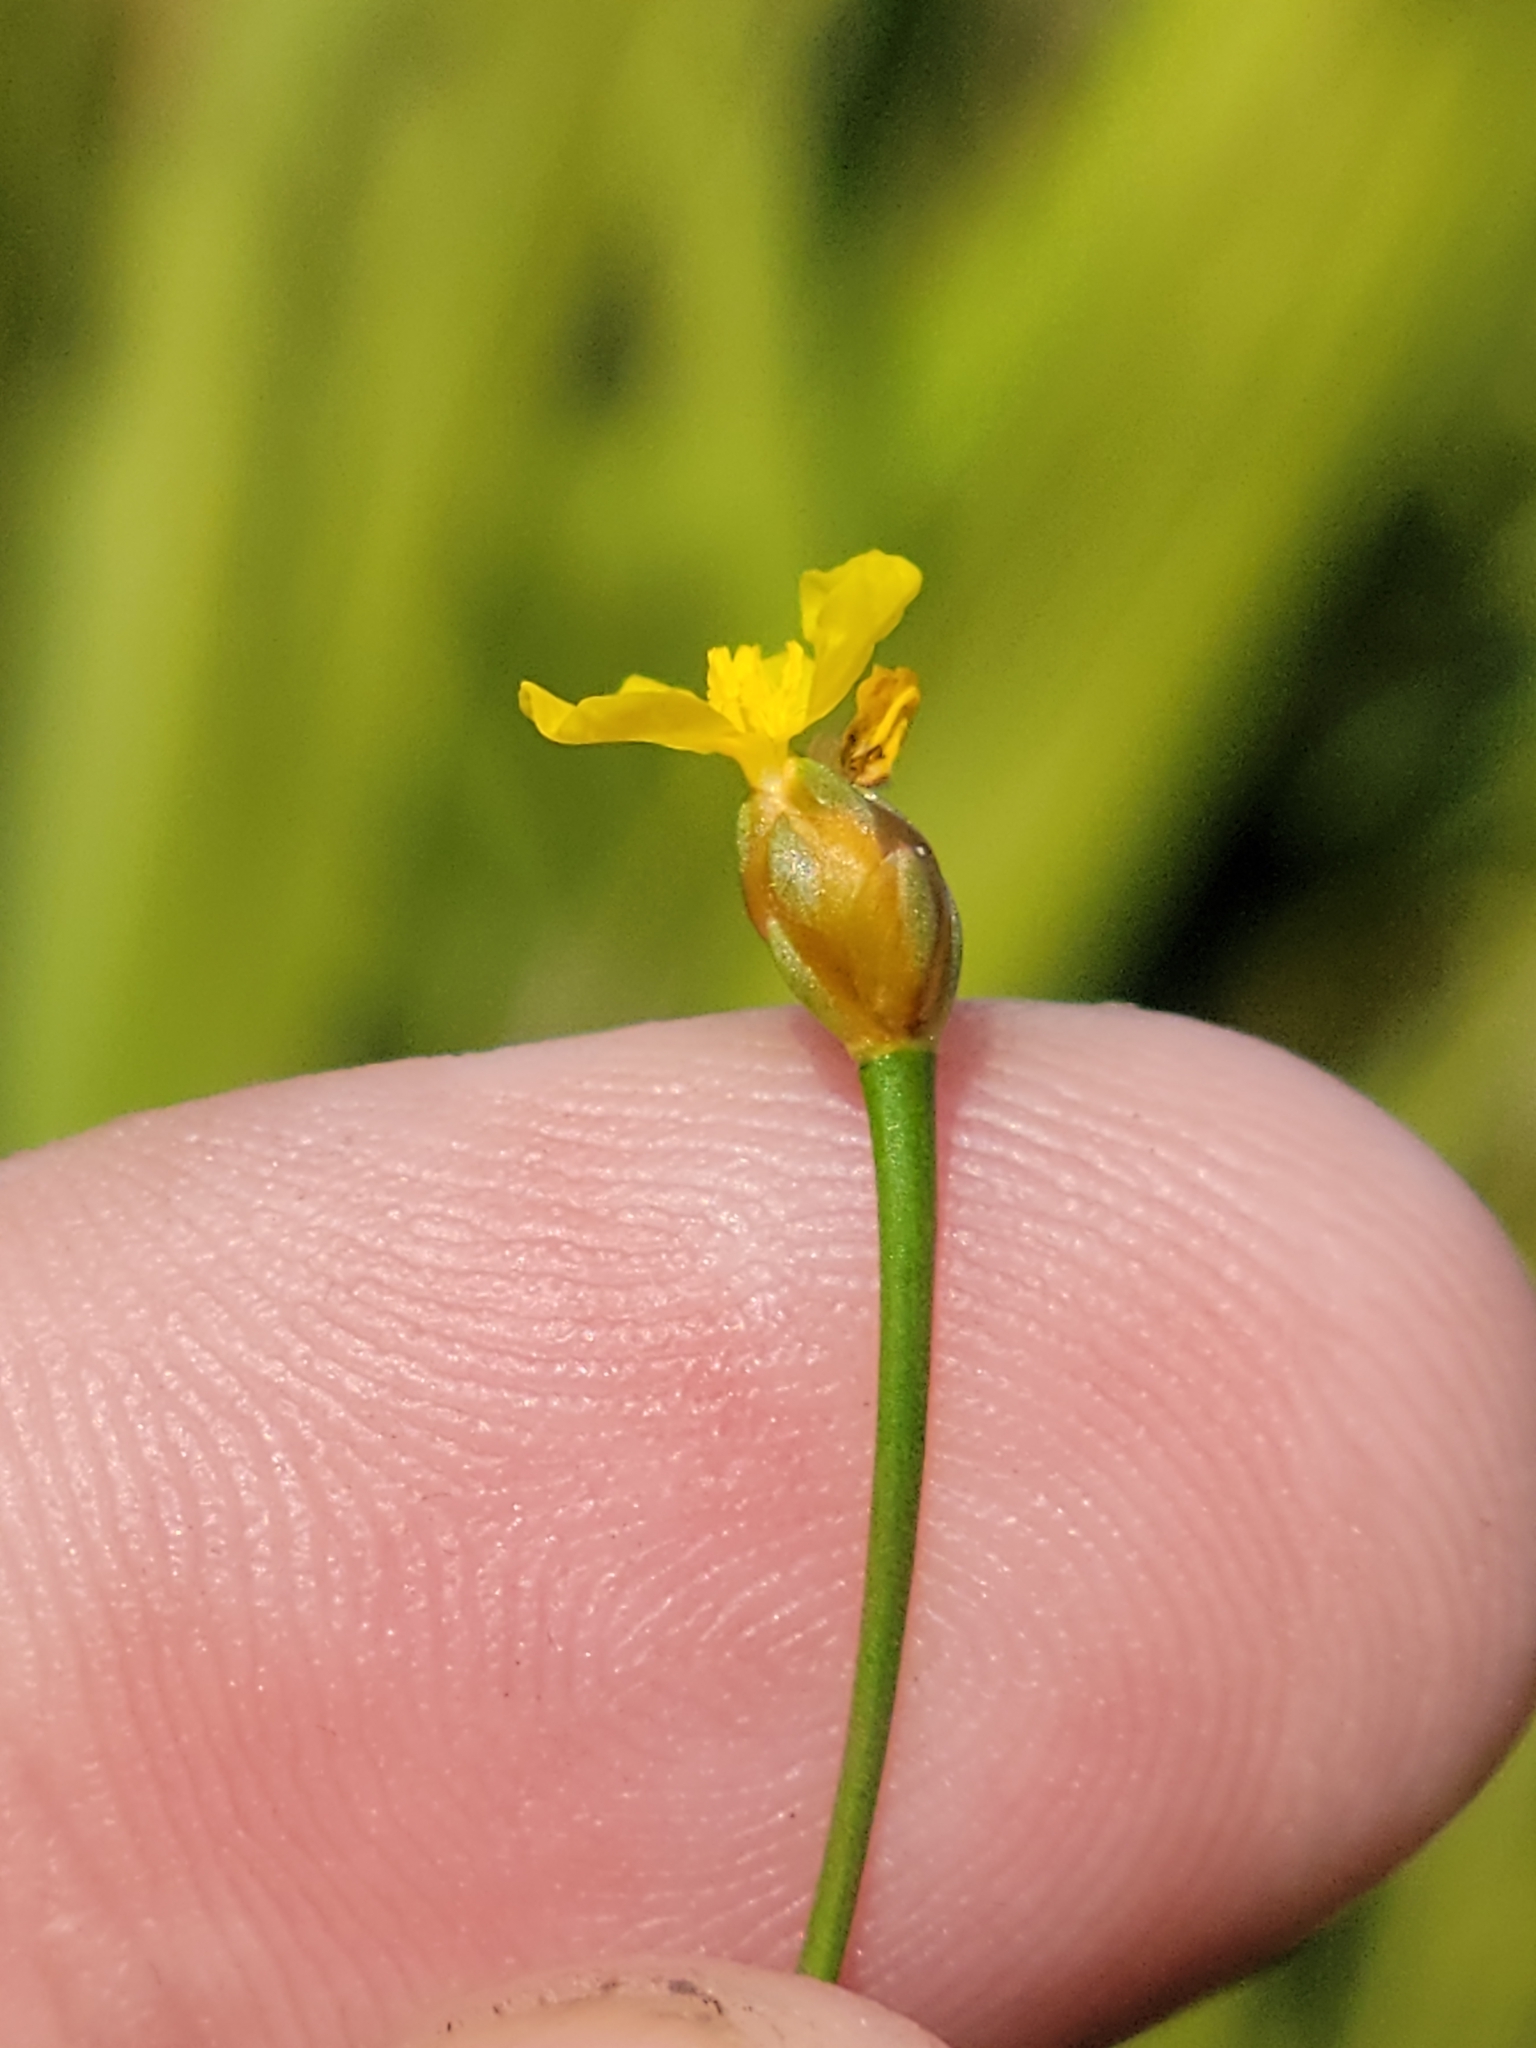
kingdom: Plantae
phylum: Tracheophyta
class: Liliopsida
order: Poales
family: Xyridaceae
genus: Xyris
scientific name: Xyris flabelliformis
